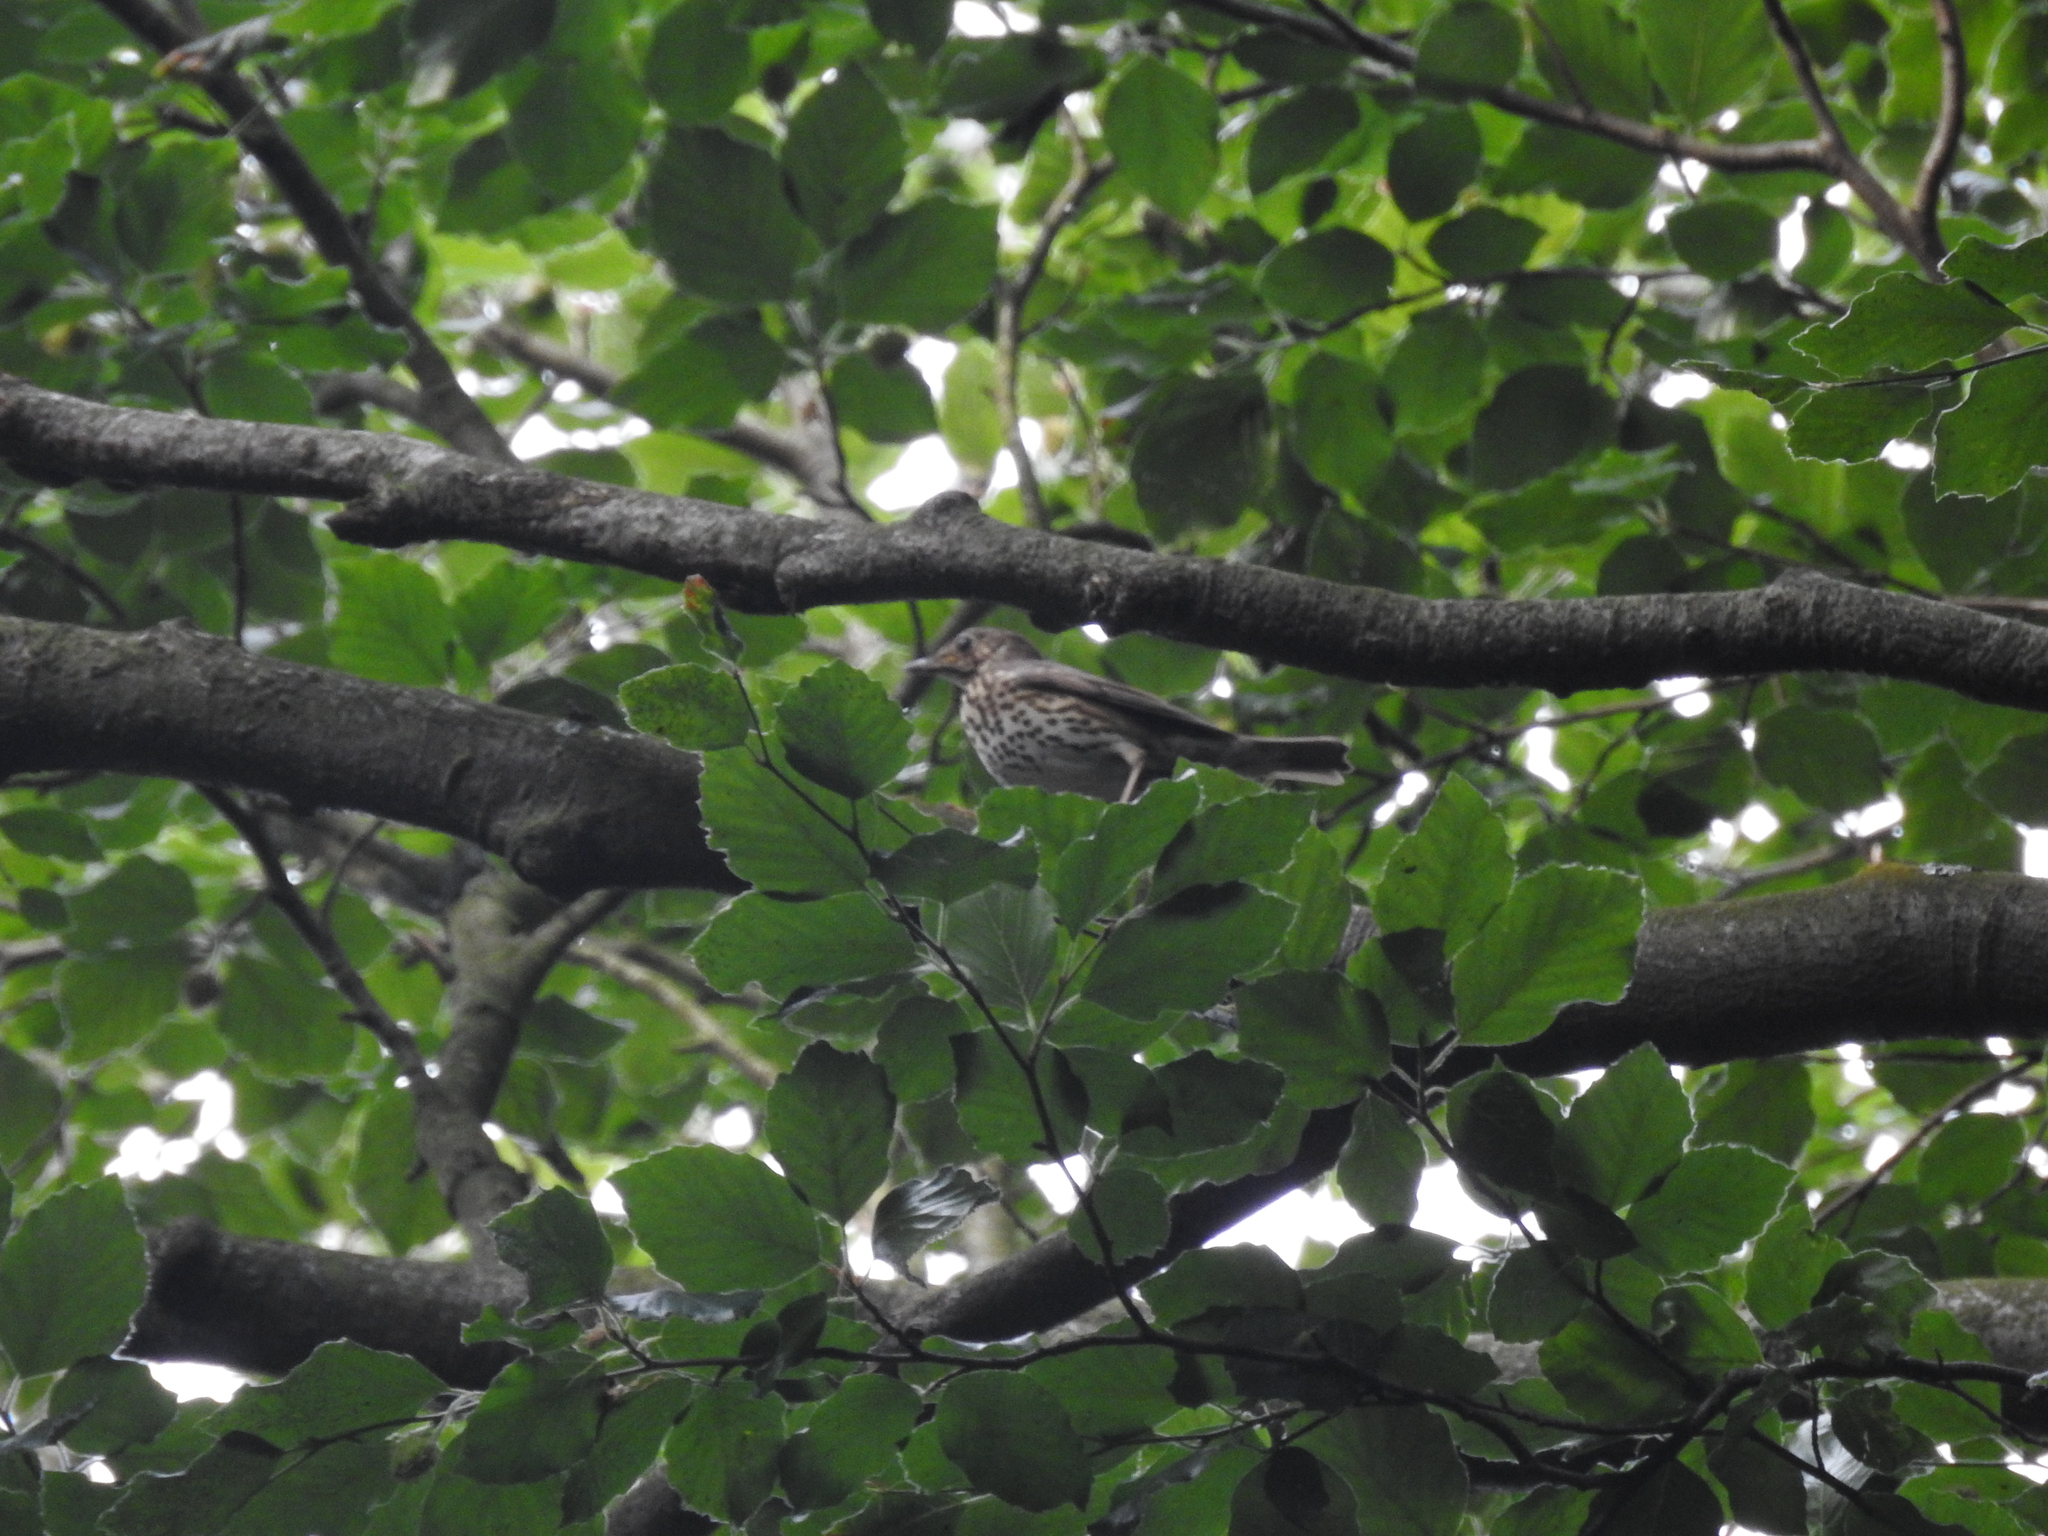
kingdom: Animalia
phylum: Chordata
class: Aves
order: Passeriformes
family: Turdidae
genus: Turdus
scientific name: Turdus philomelos
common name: Song thrush
